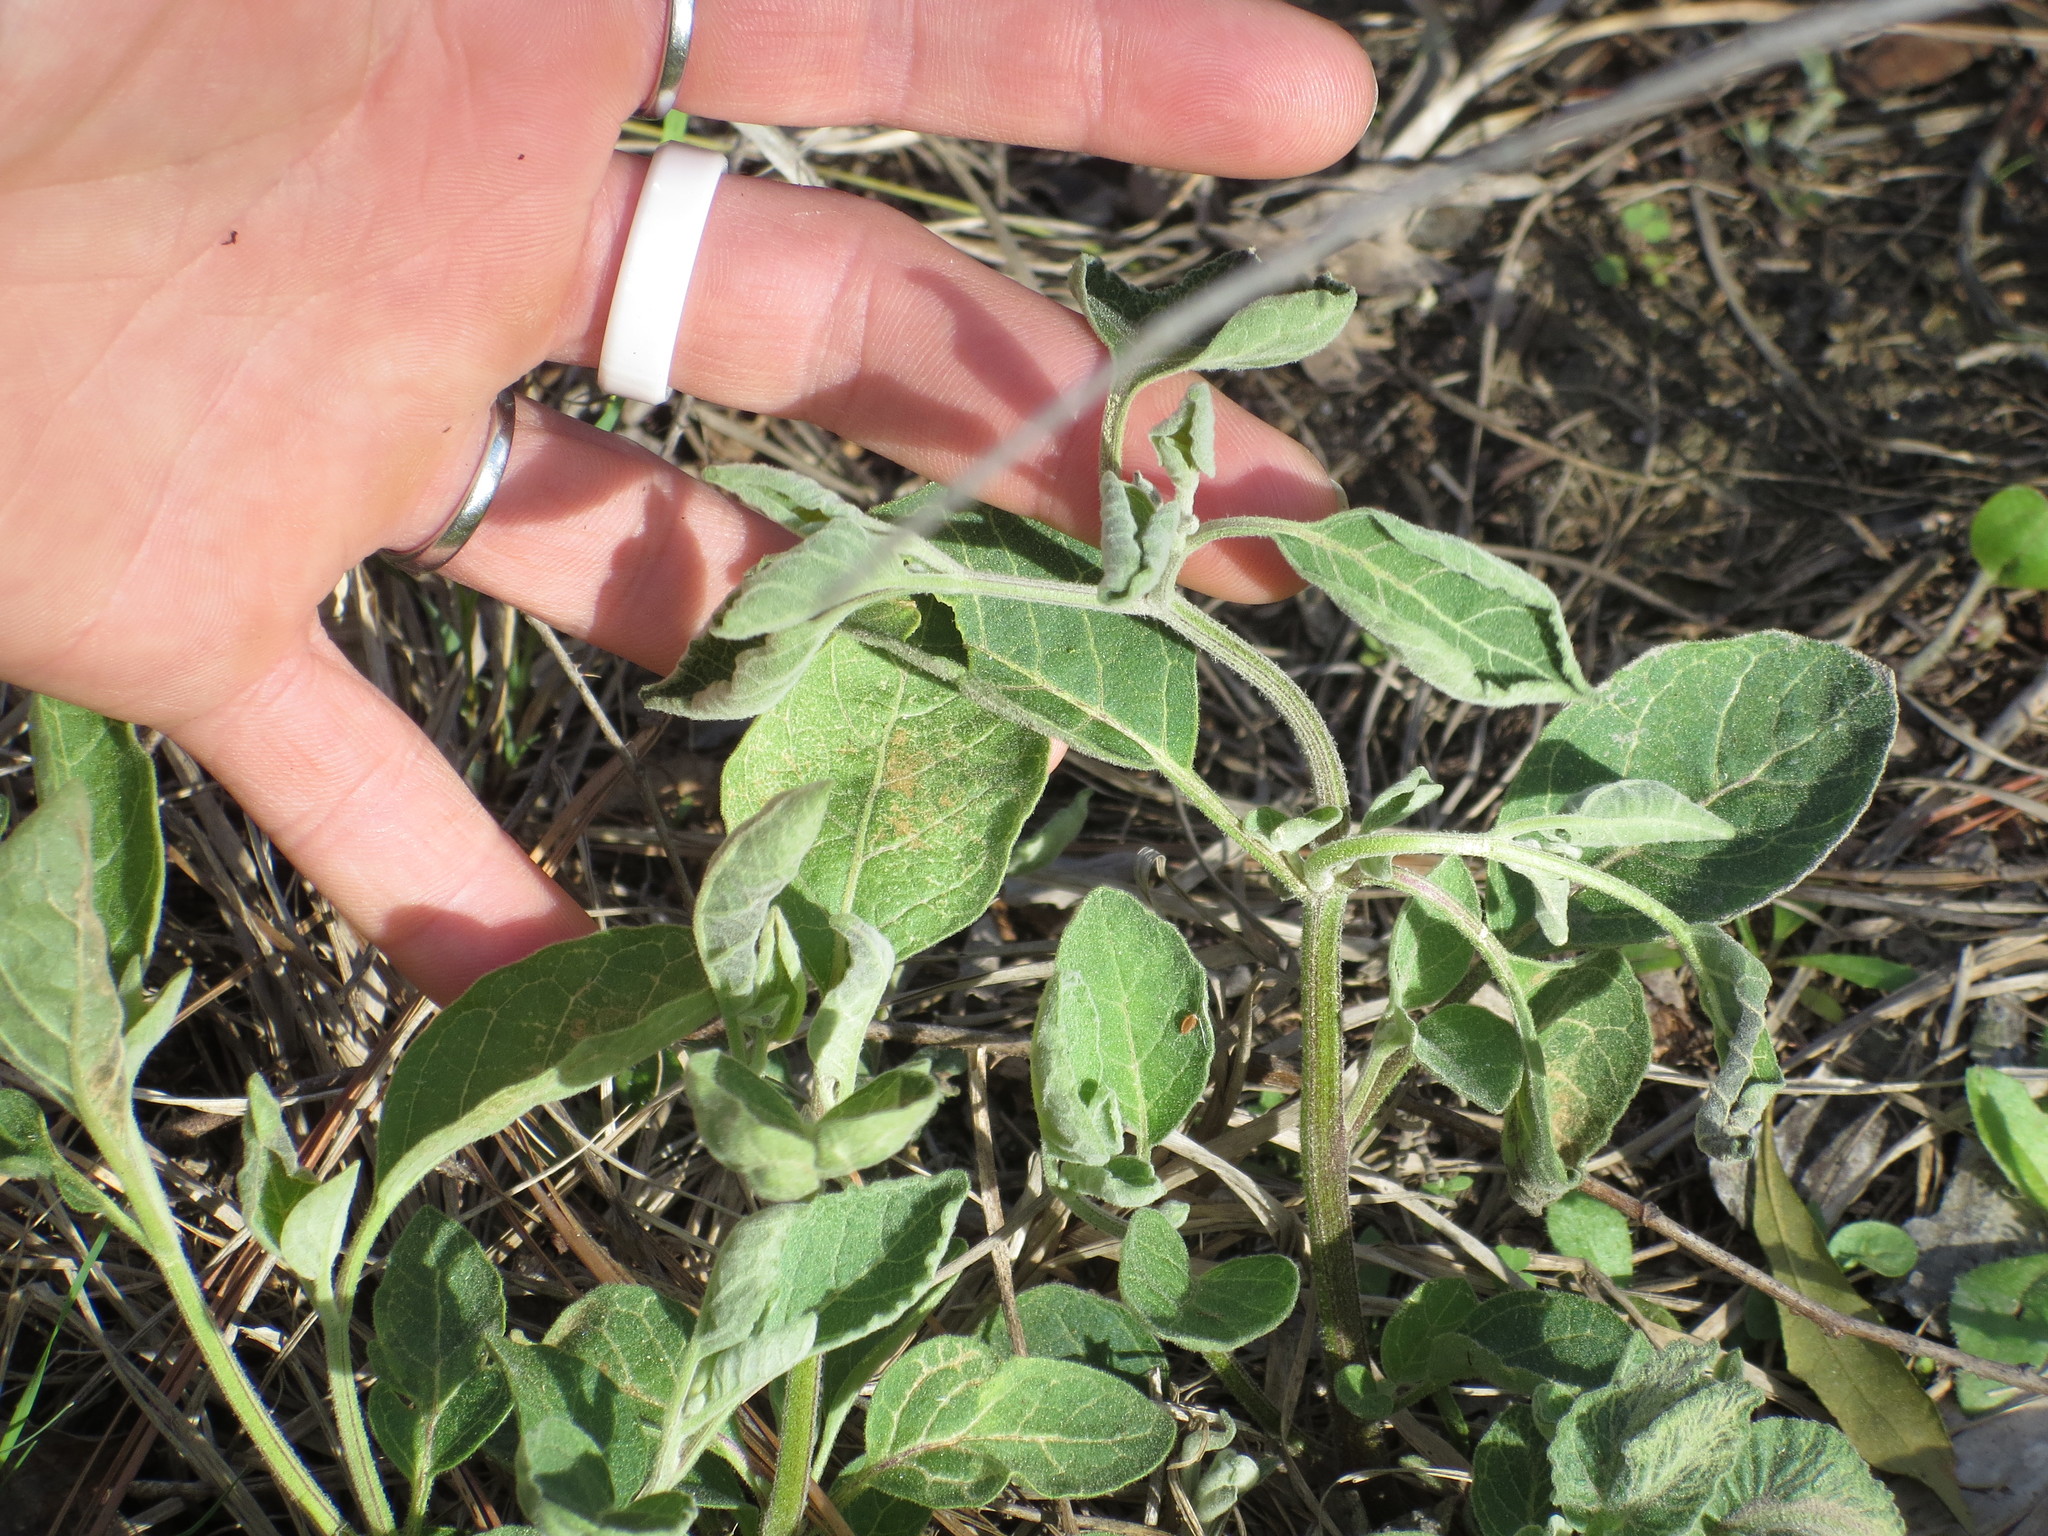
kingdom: Plantae
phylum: Tracheophyta
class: Magnoliopsida
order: Solanales
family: Solanaceae
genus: Physalis
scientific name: Physalis walteri
